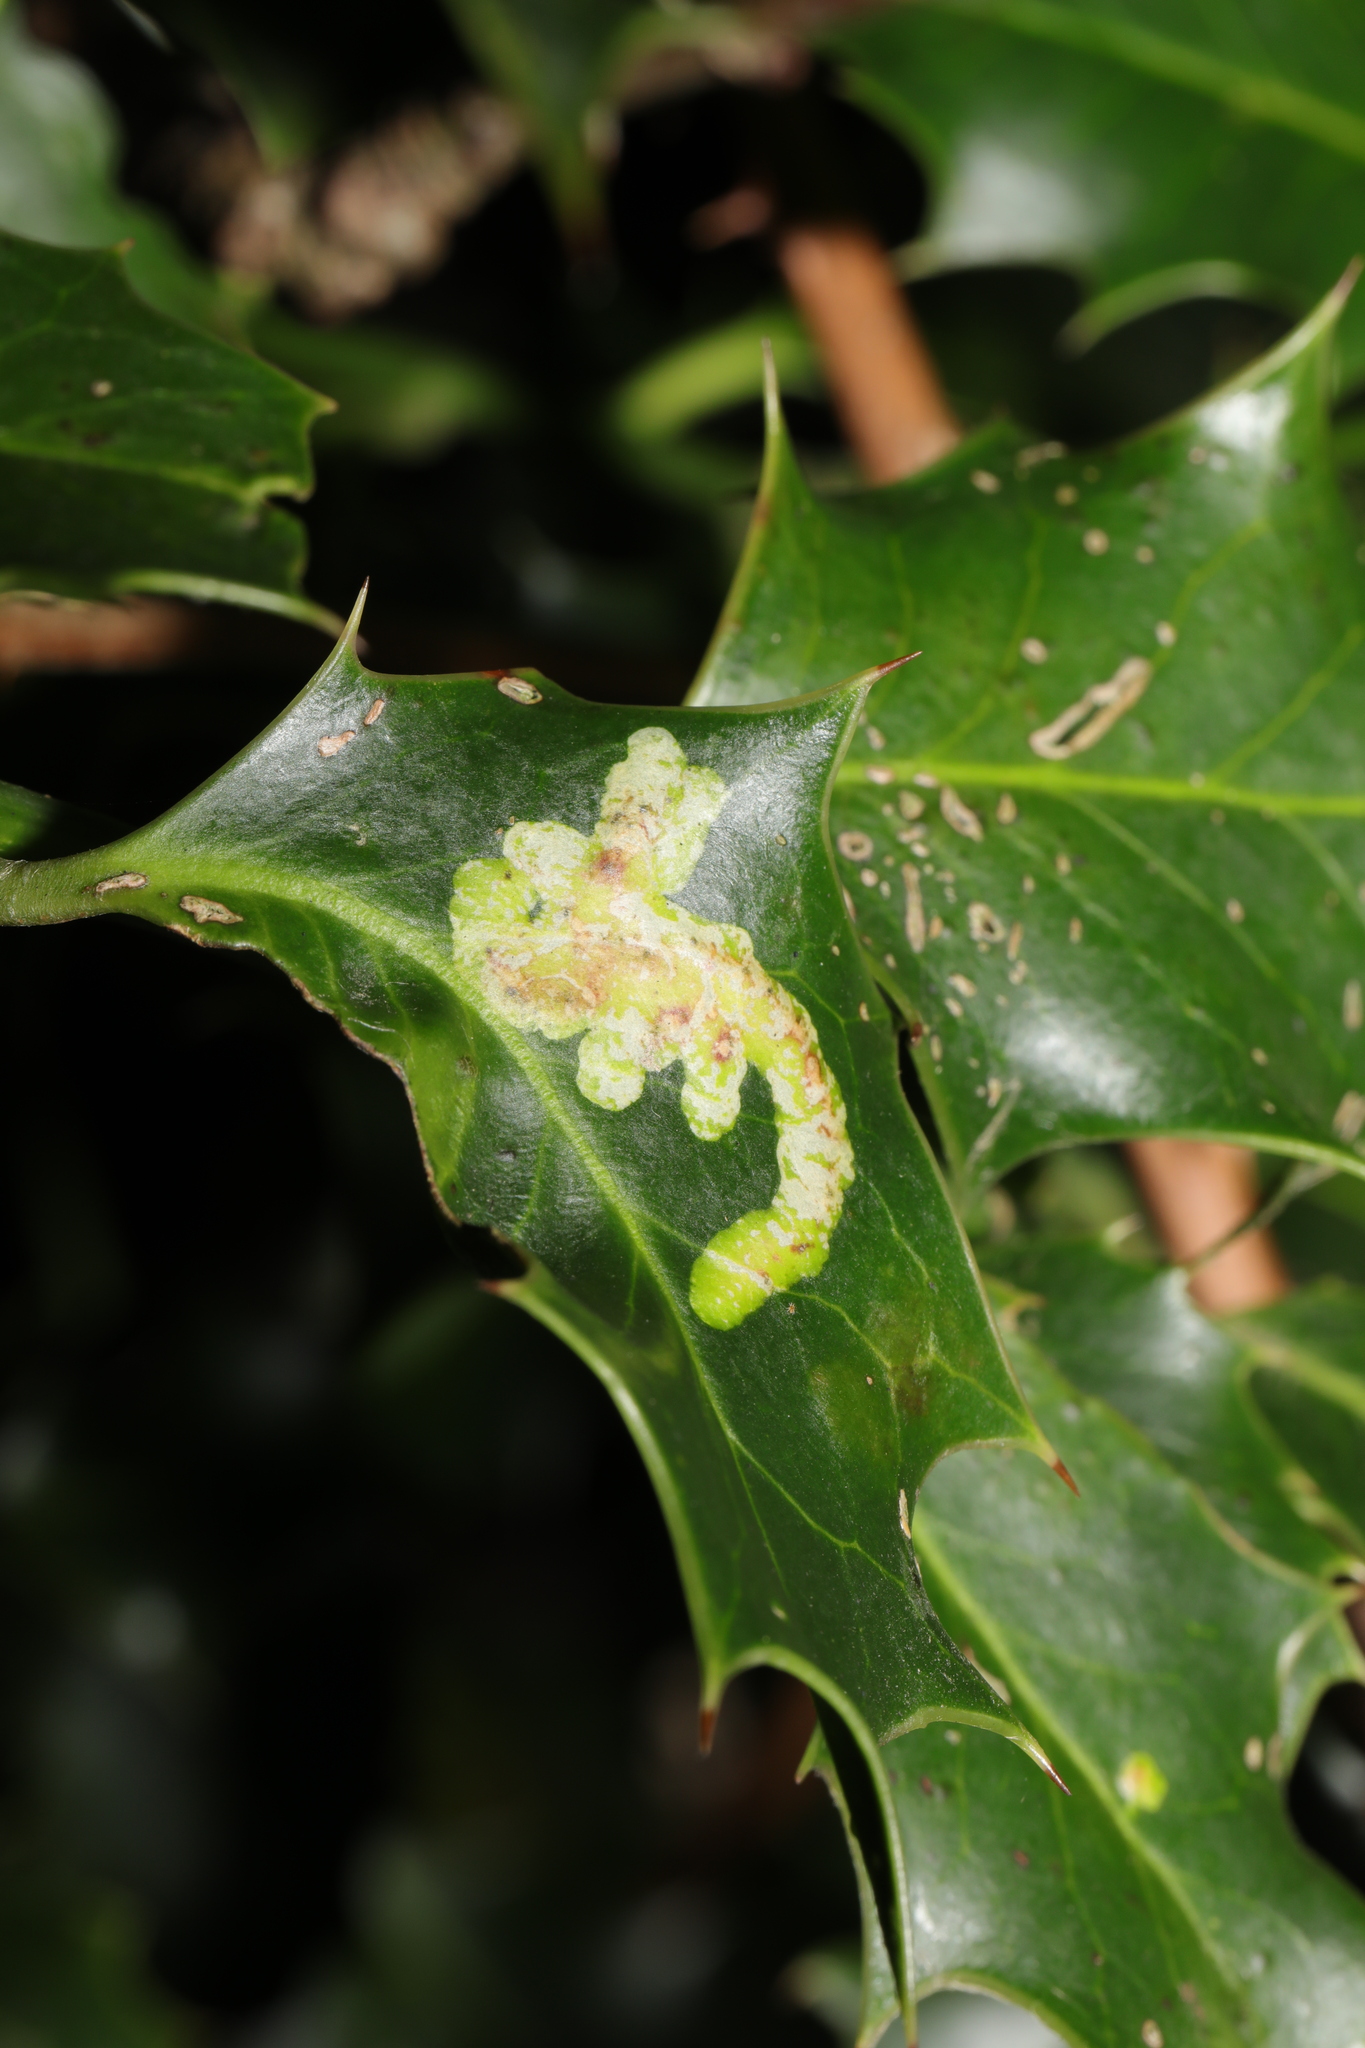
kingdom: Animalia
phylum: Arthropoda
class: Insecta
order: Diptera
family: Agromyzidae
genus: Phytomyza
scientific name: Phytomyza ilicis
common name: Holly leafminer
